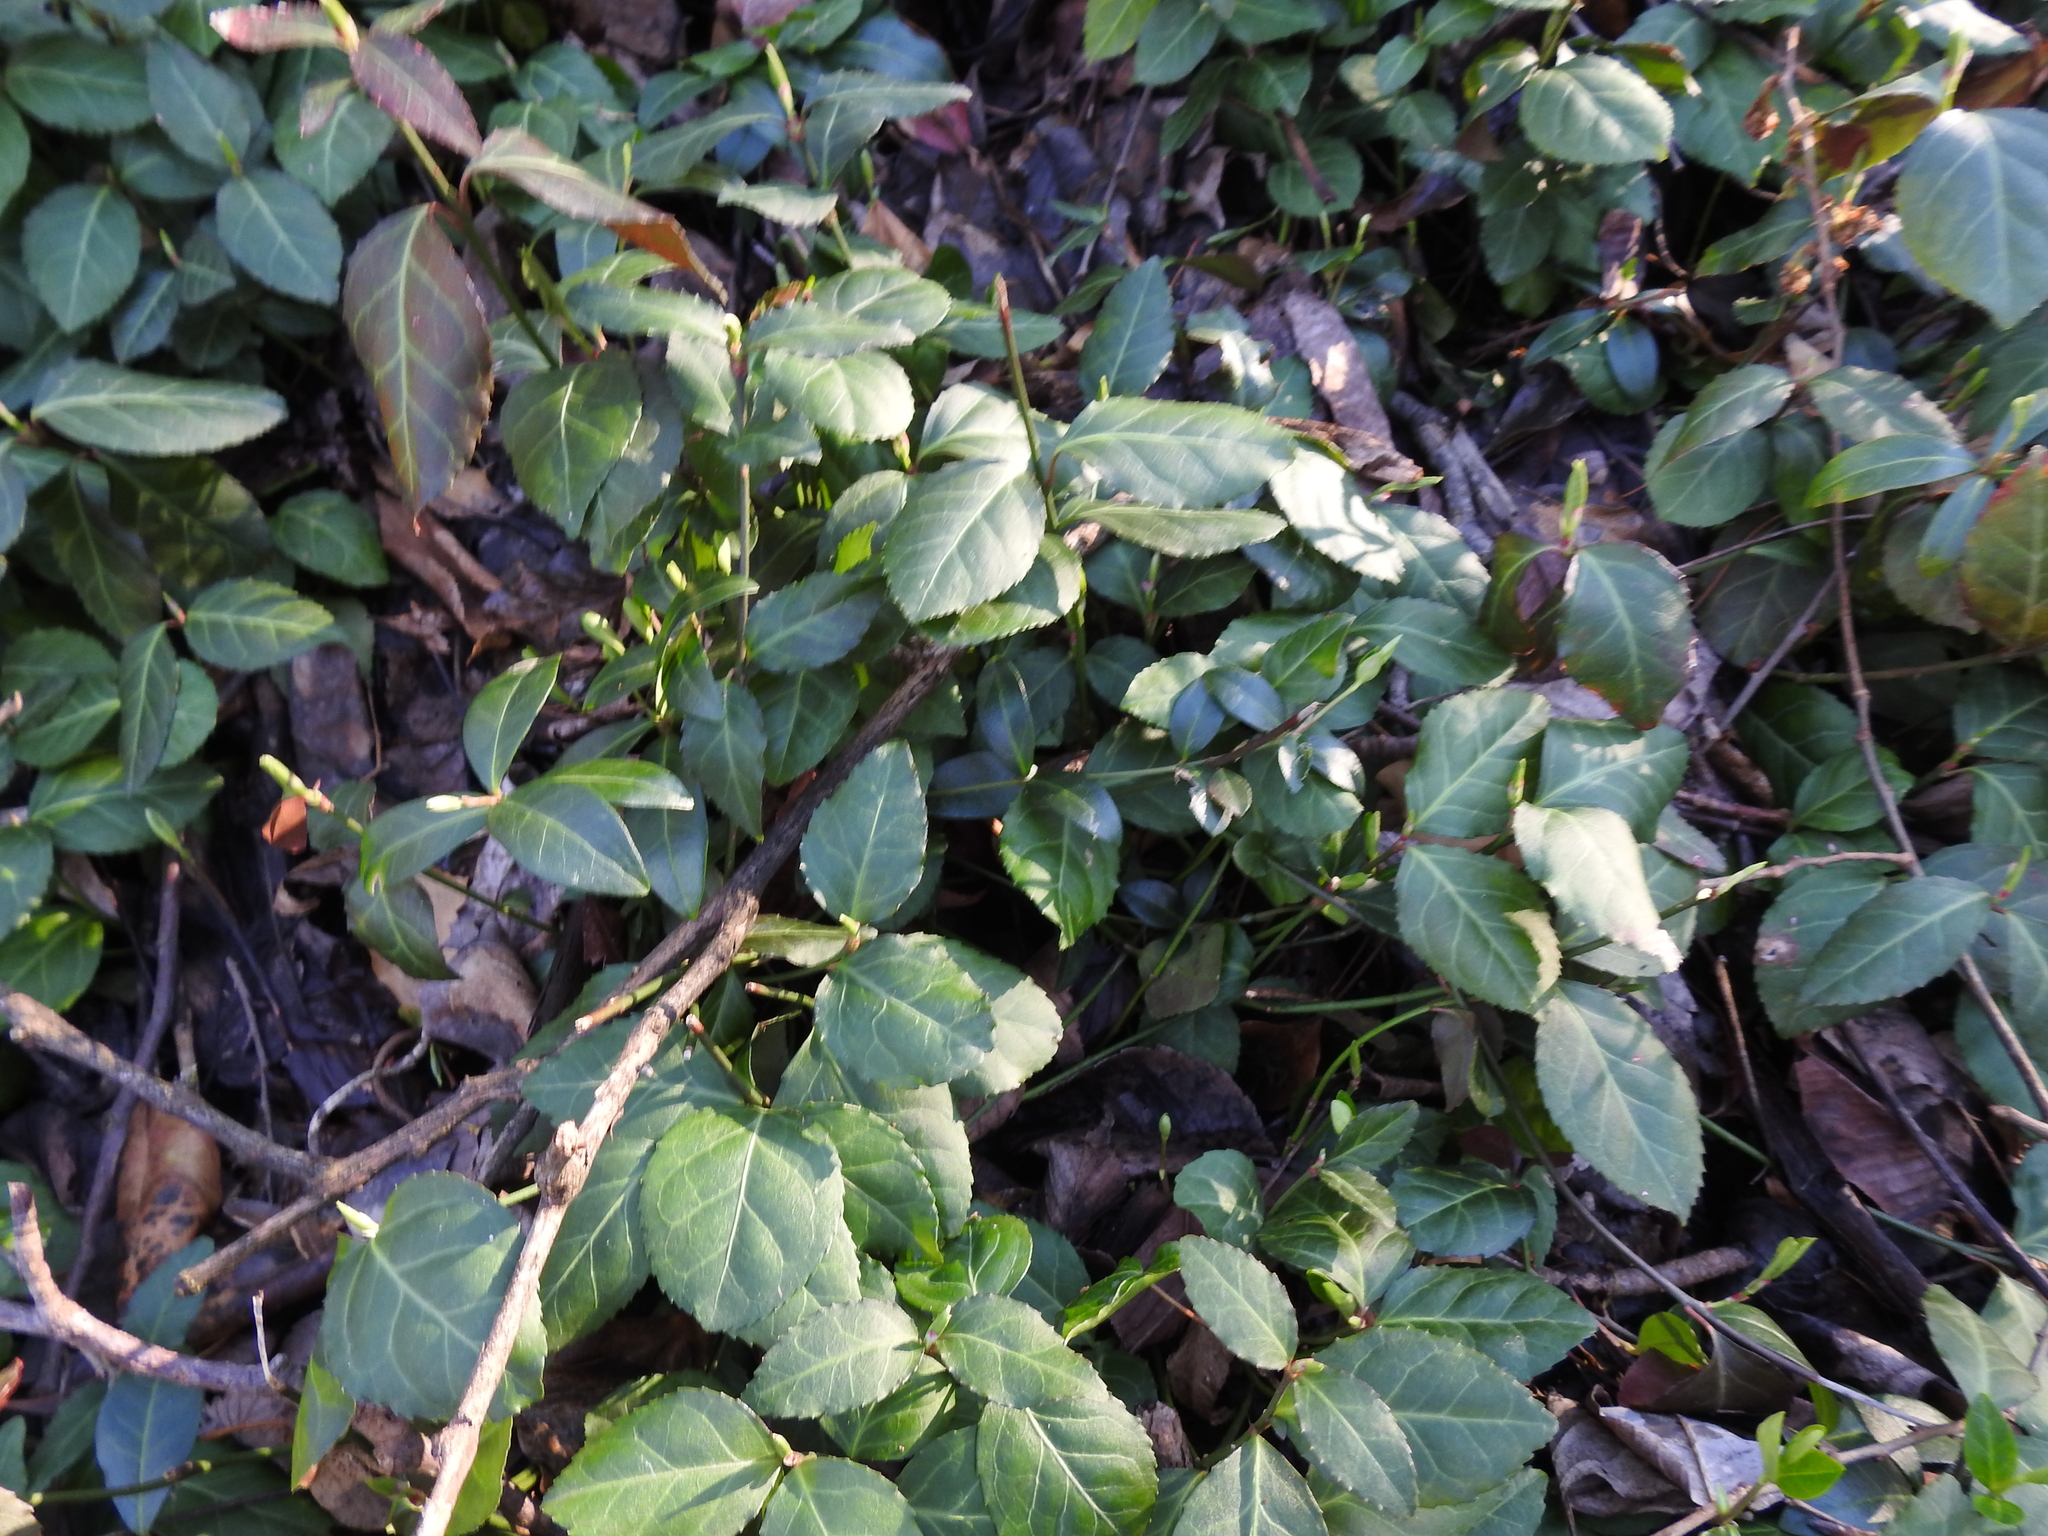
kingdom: Plantae
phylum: Tracheophyta
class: Magnoliopsida
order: Celastrales
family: Celastraceae
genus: Euonymus
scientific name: Euonymus fortunei
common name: Climbing euonymus
